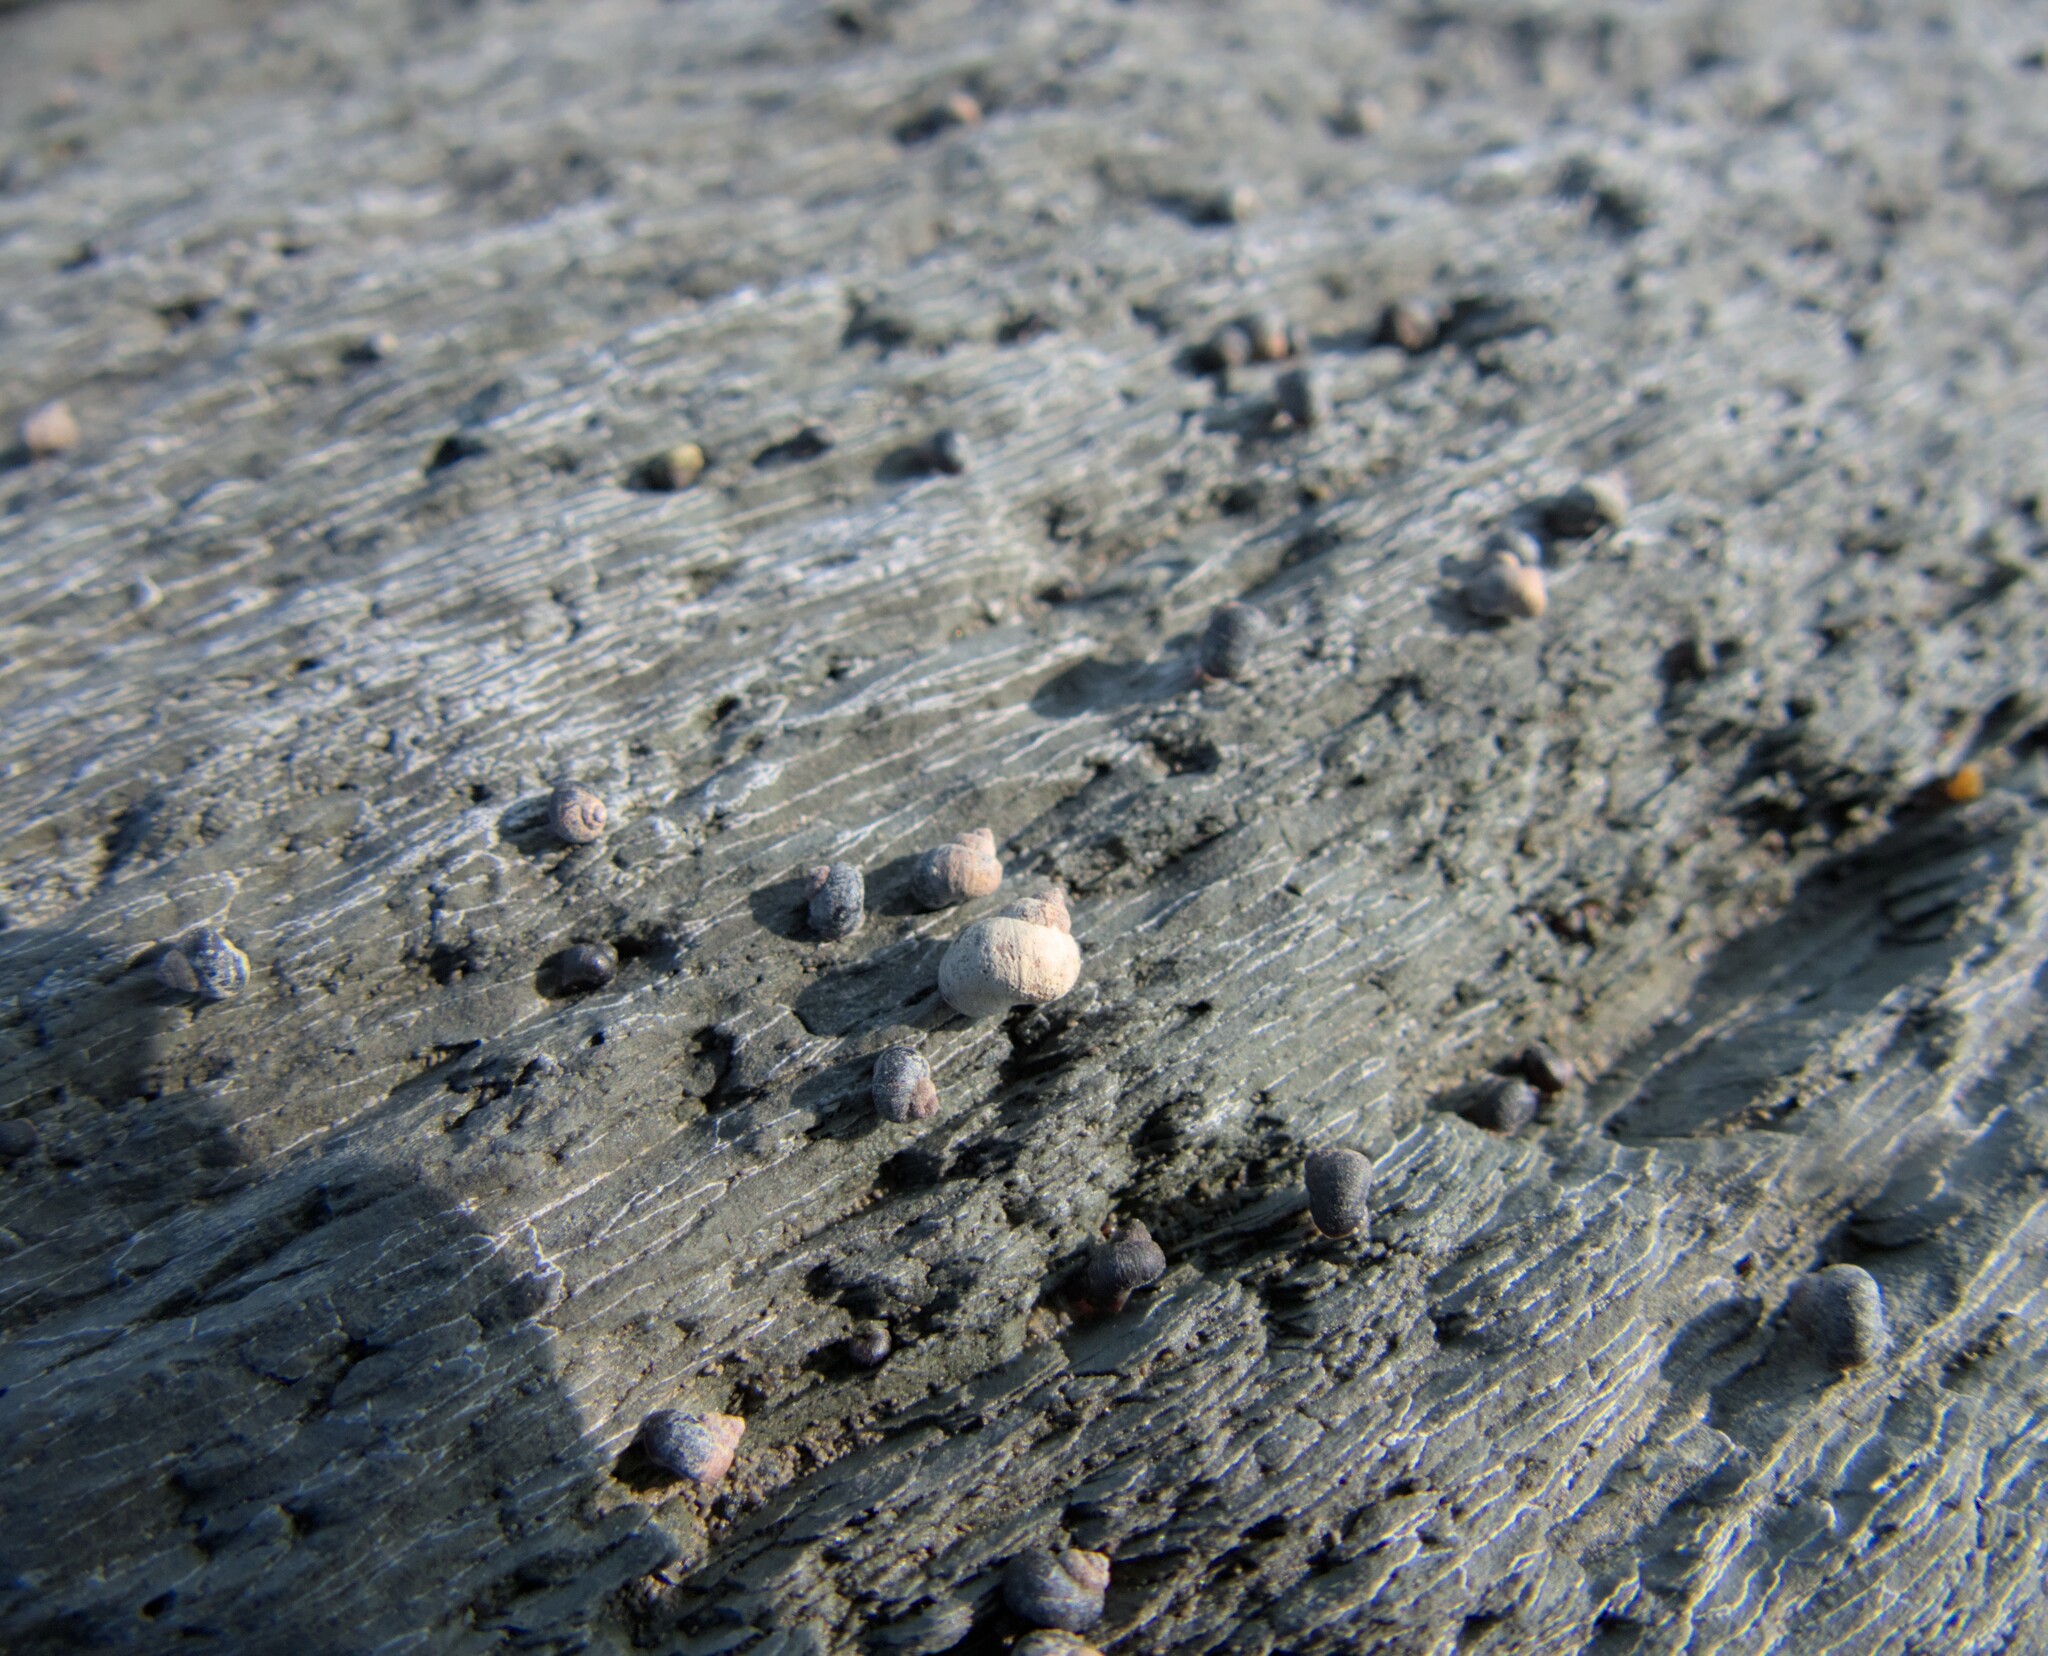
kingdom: Animalia
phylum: Mollusca
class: Gastropoda
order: Littorinimorpha
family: Littorinidae
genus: Littorina
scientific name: Littorina saxatilis
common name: Black-lined periwinkle
